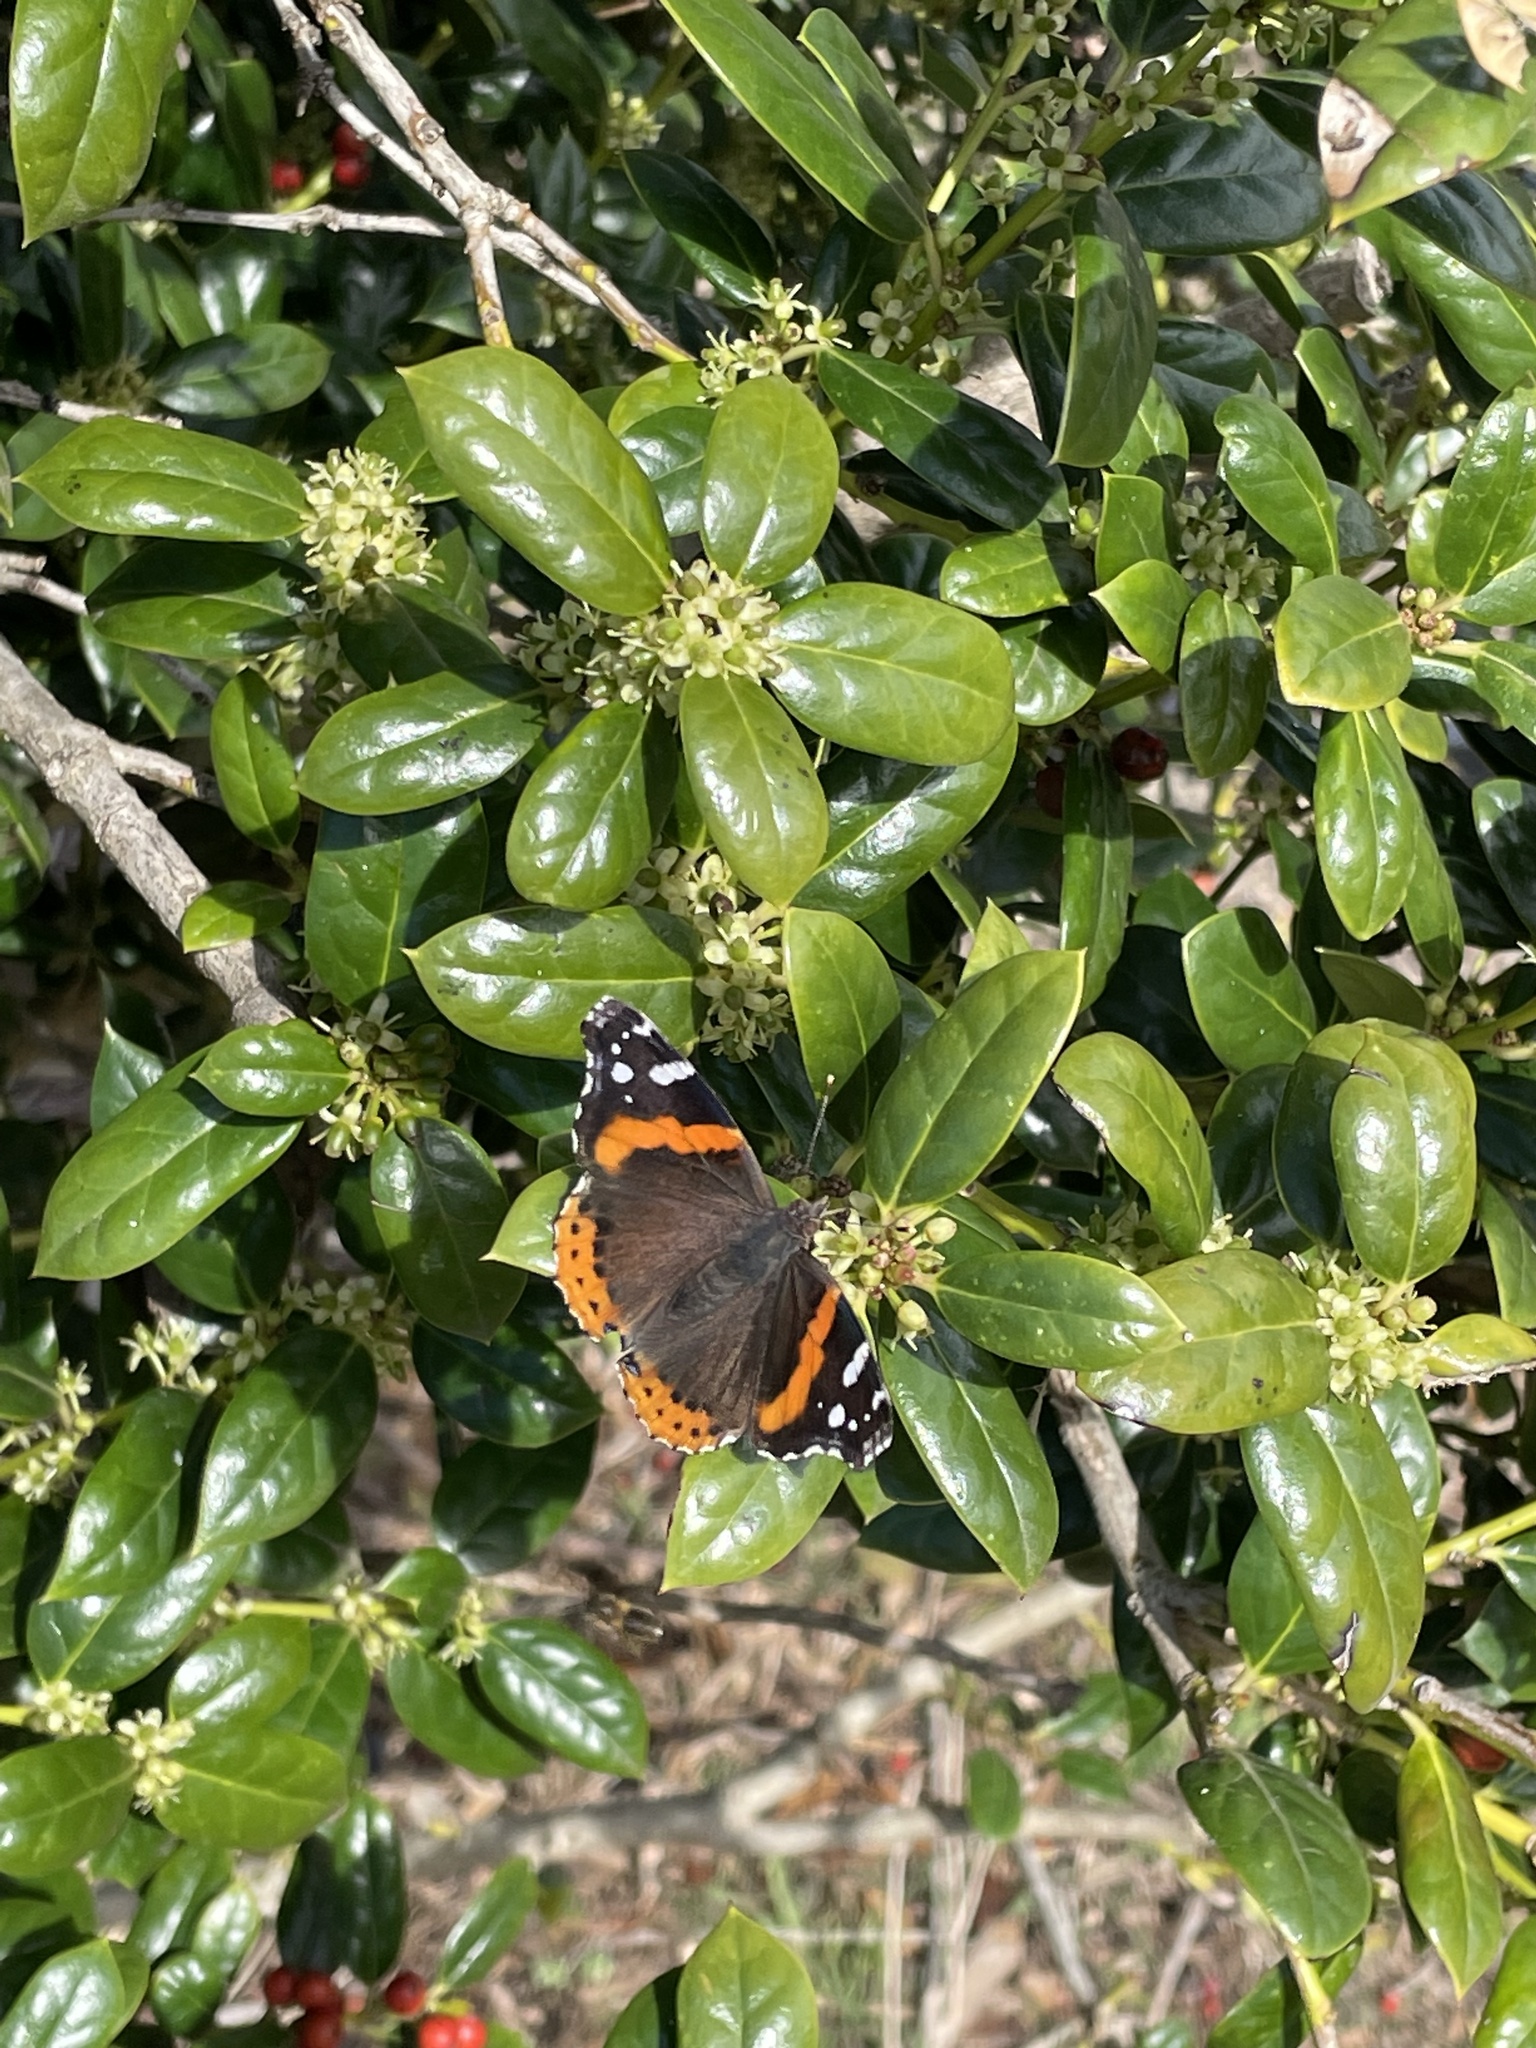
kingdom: Animalia
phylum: Arthropoda
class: Insecta
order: Lepidoptera
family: Nymphalidae
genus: Vanessa
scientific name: Vanessa atalanta
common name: Red admiral
